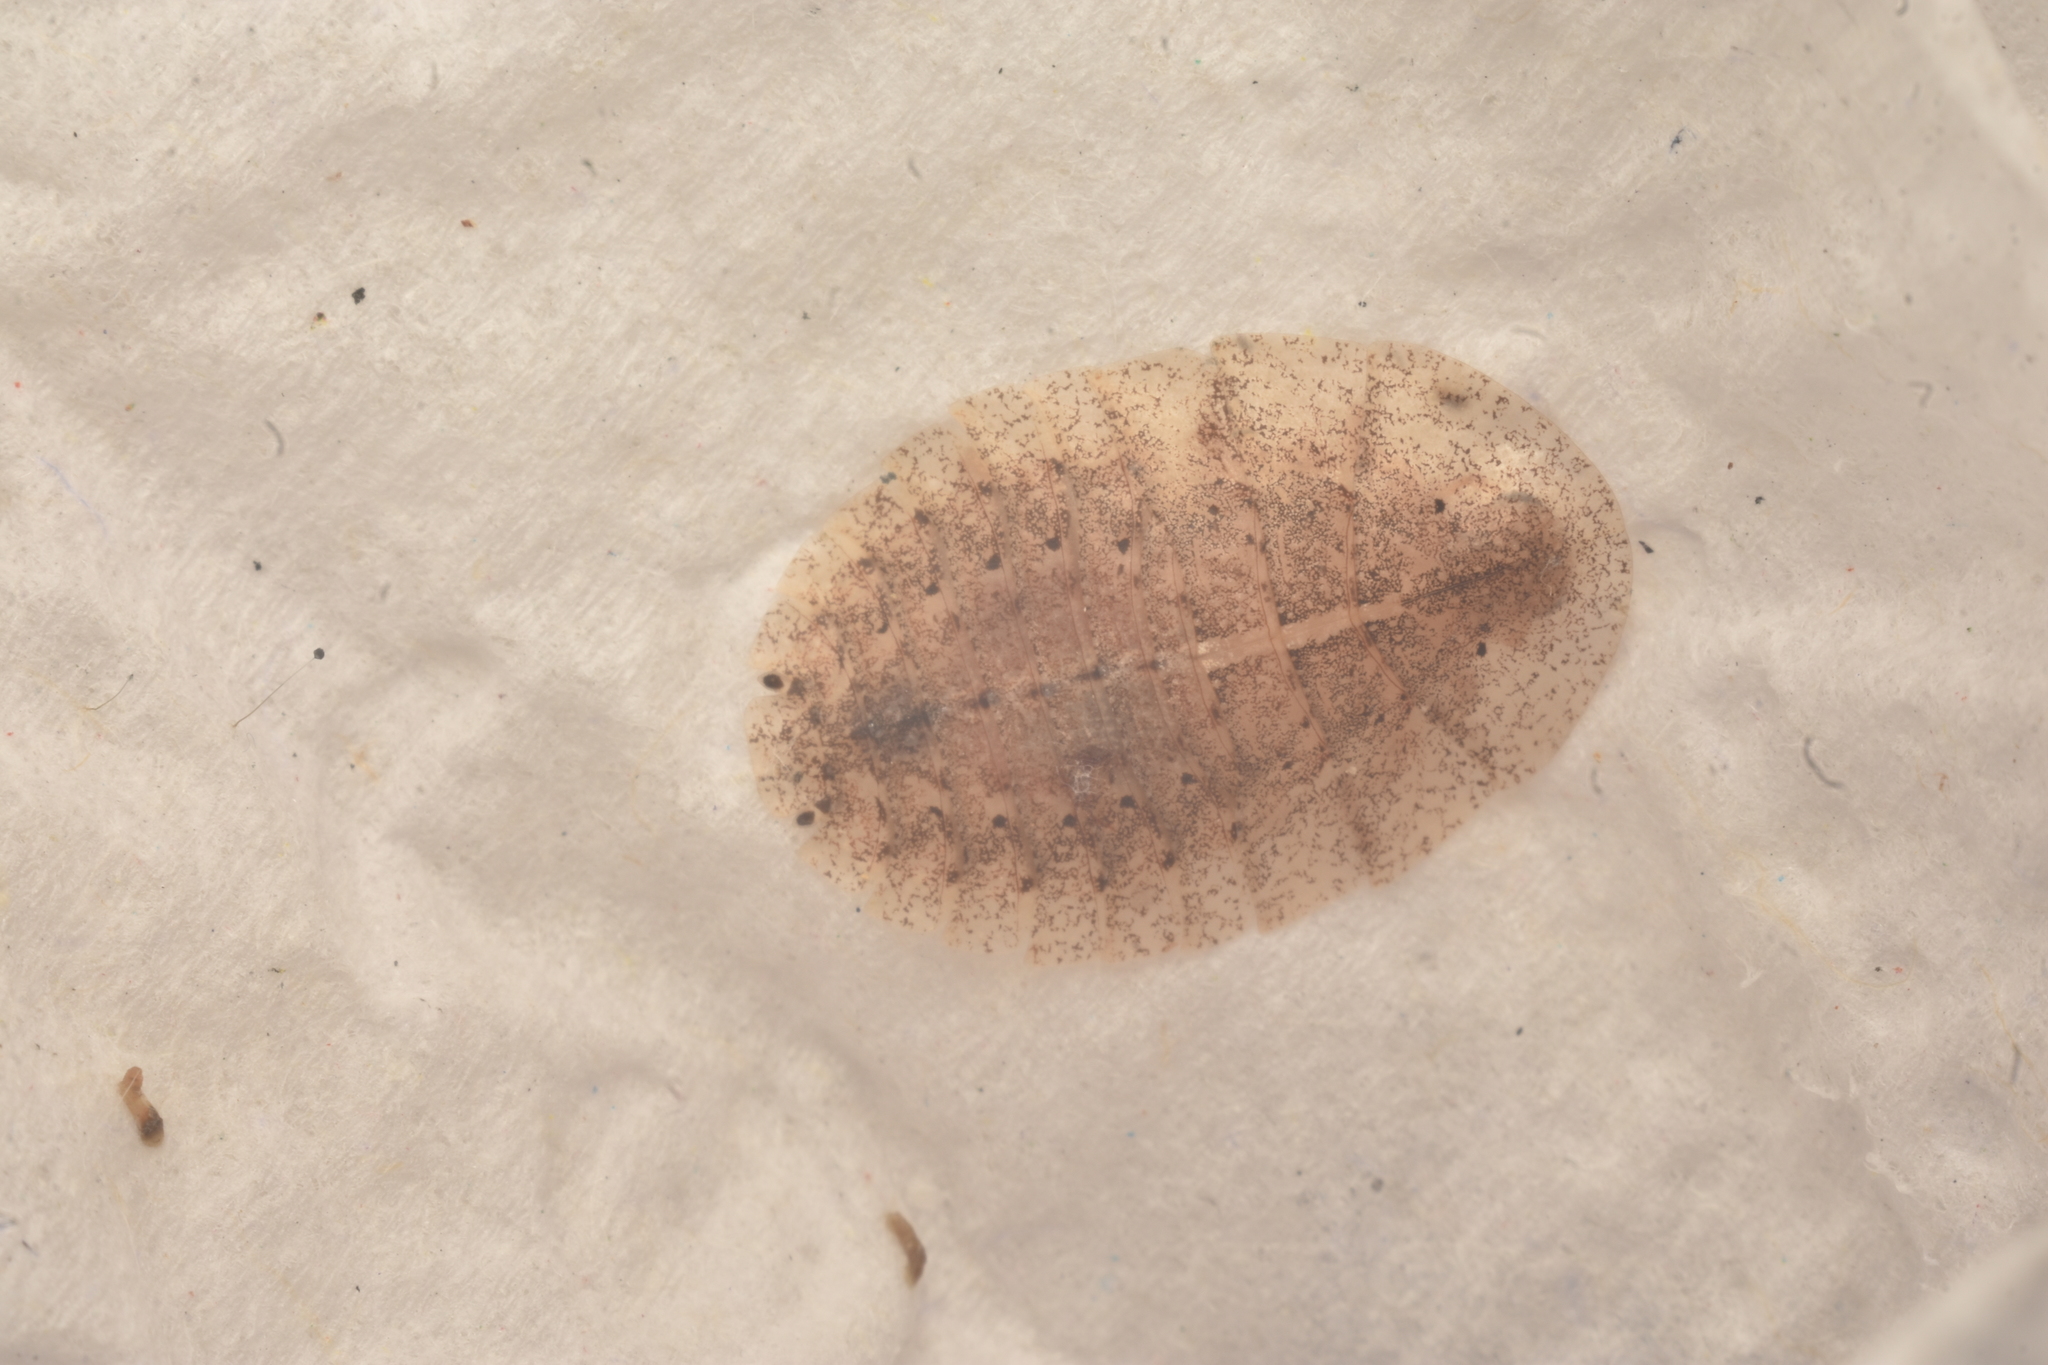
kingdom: Animalia
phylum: Arthropoda
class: Insecta
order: Blattodea
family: Blaberidae
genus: Capucinella
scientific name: Capucinella delicatula
